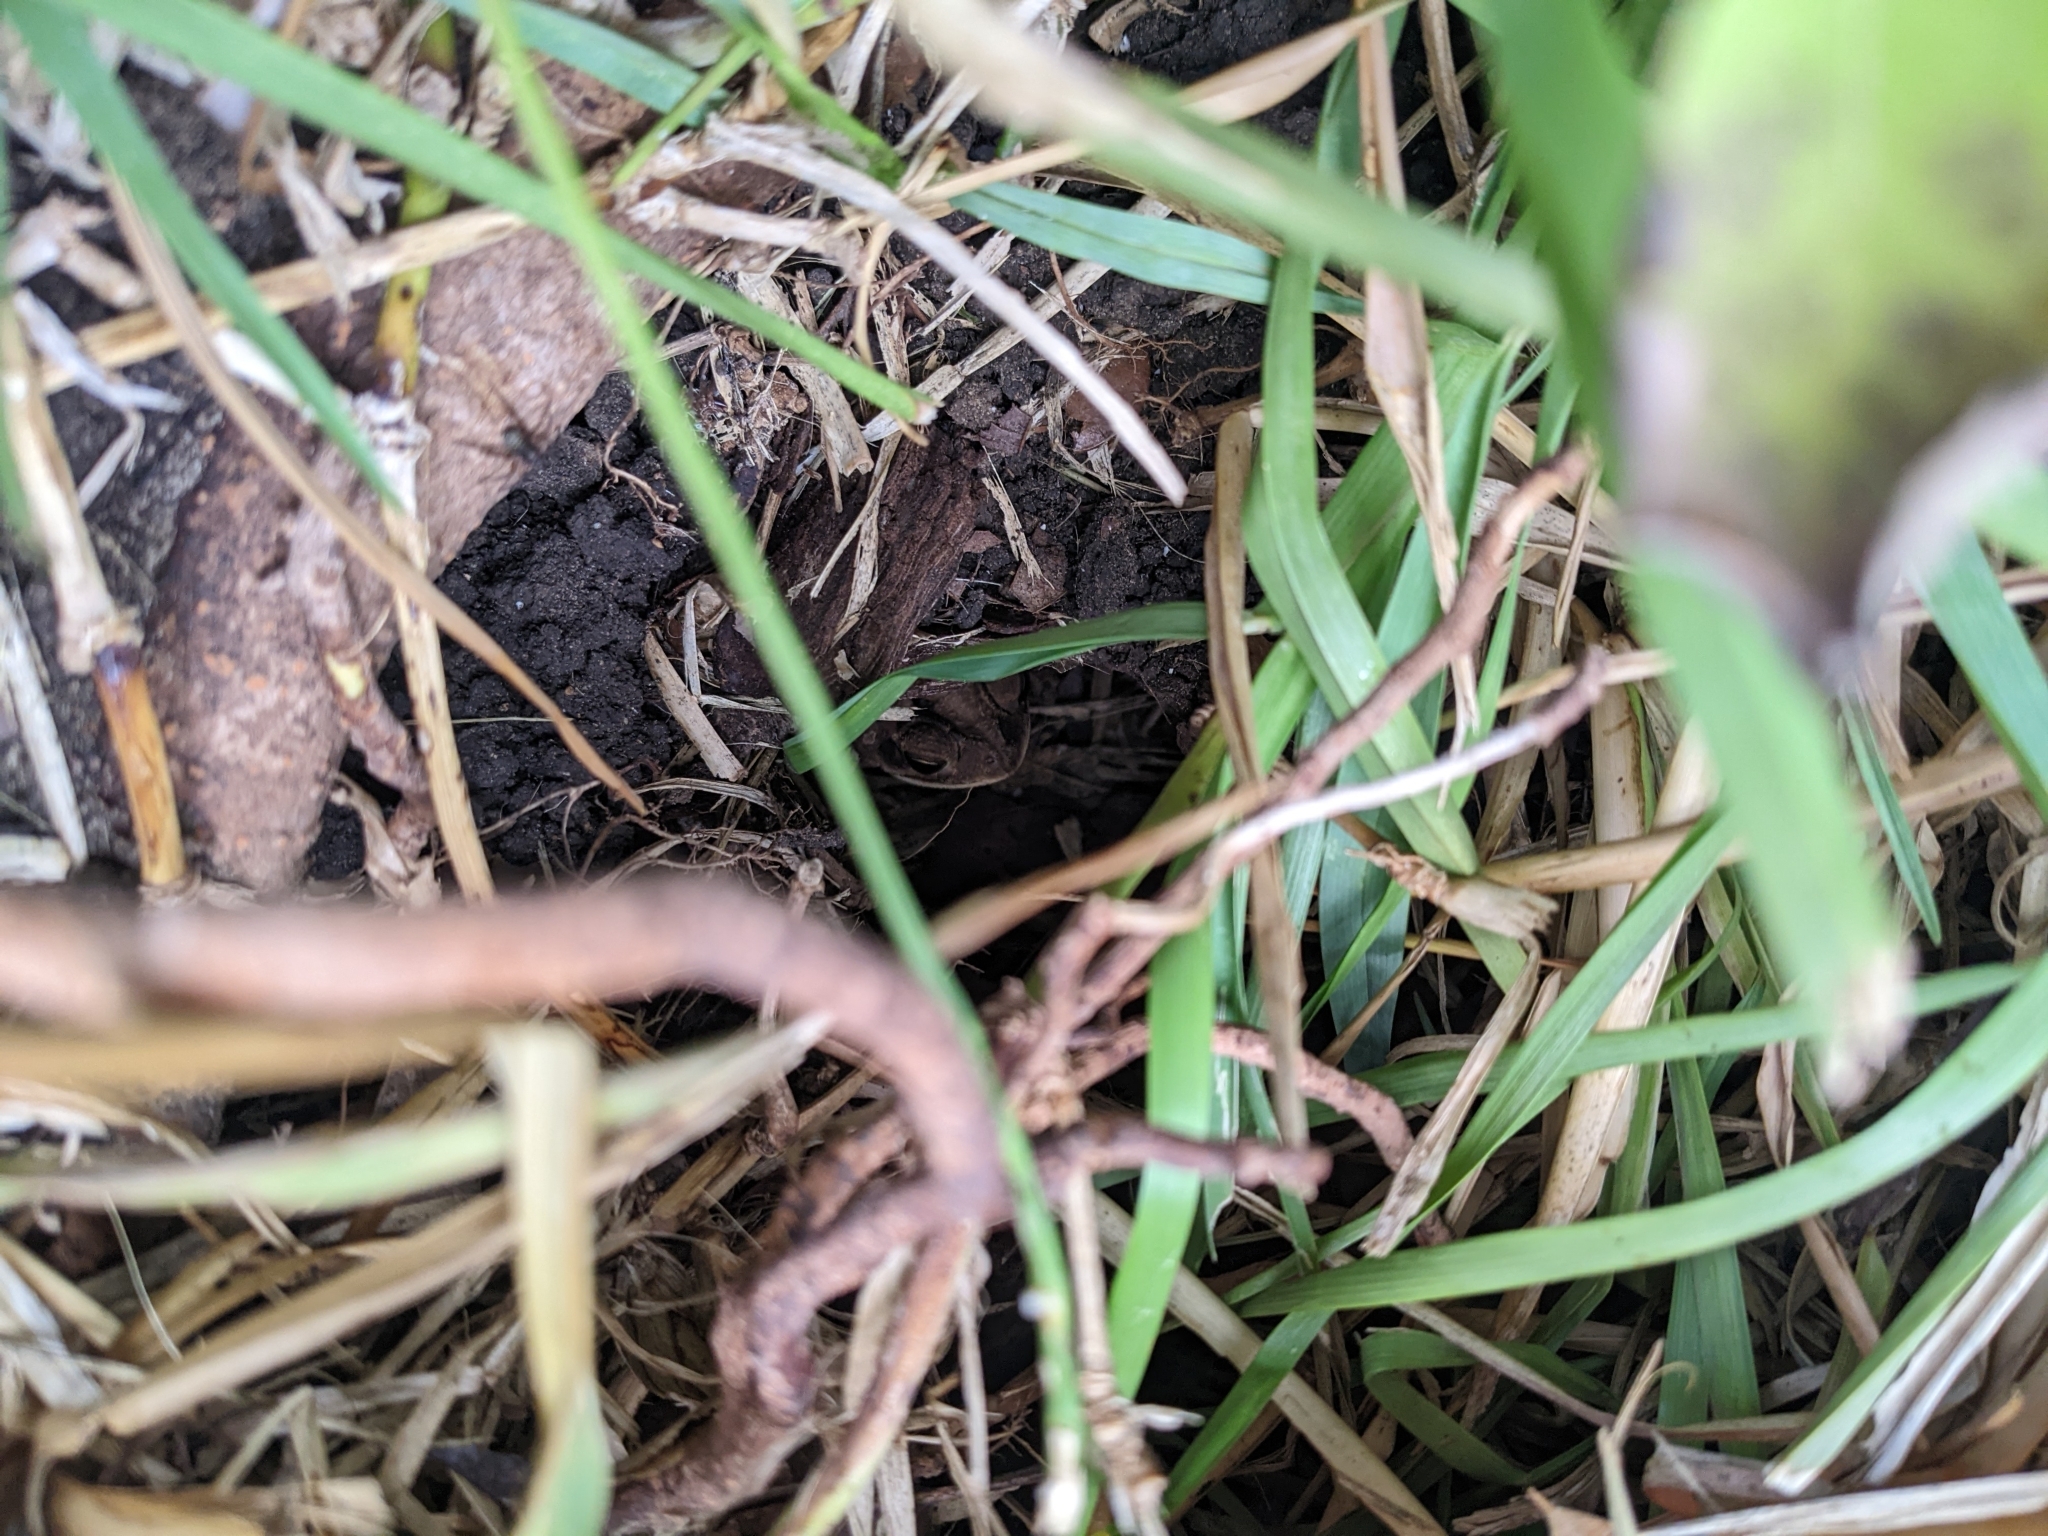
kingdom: Animalia
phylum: Chordata
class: Amphibia
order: Anura
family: Bufonidae
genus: Incilius
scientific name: Incilius nebulifer
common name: Gulf coast toad
